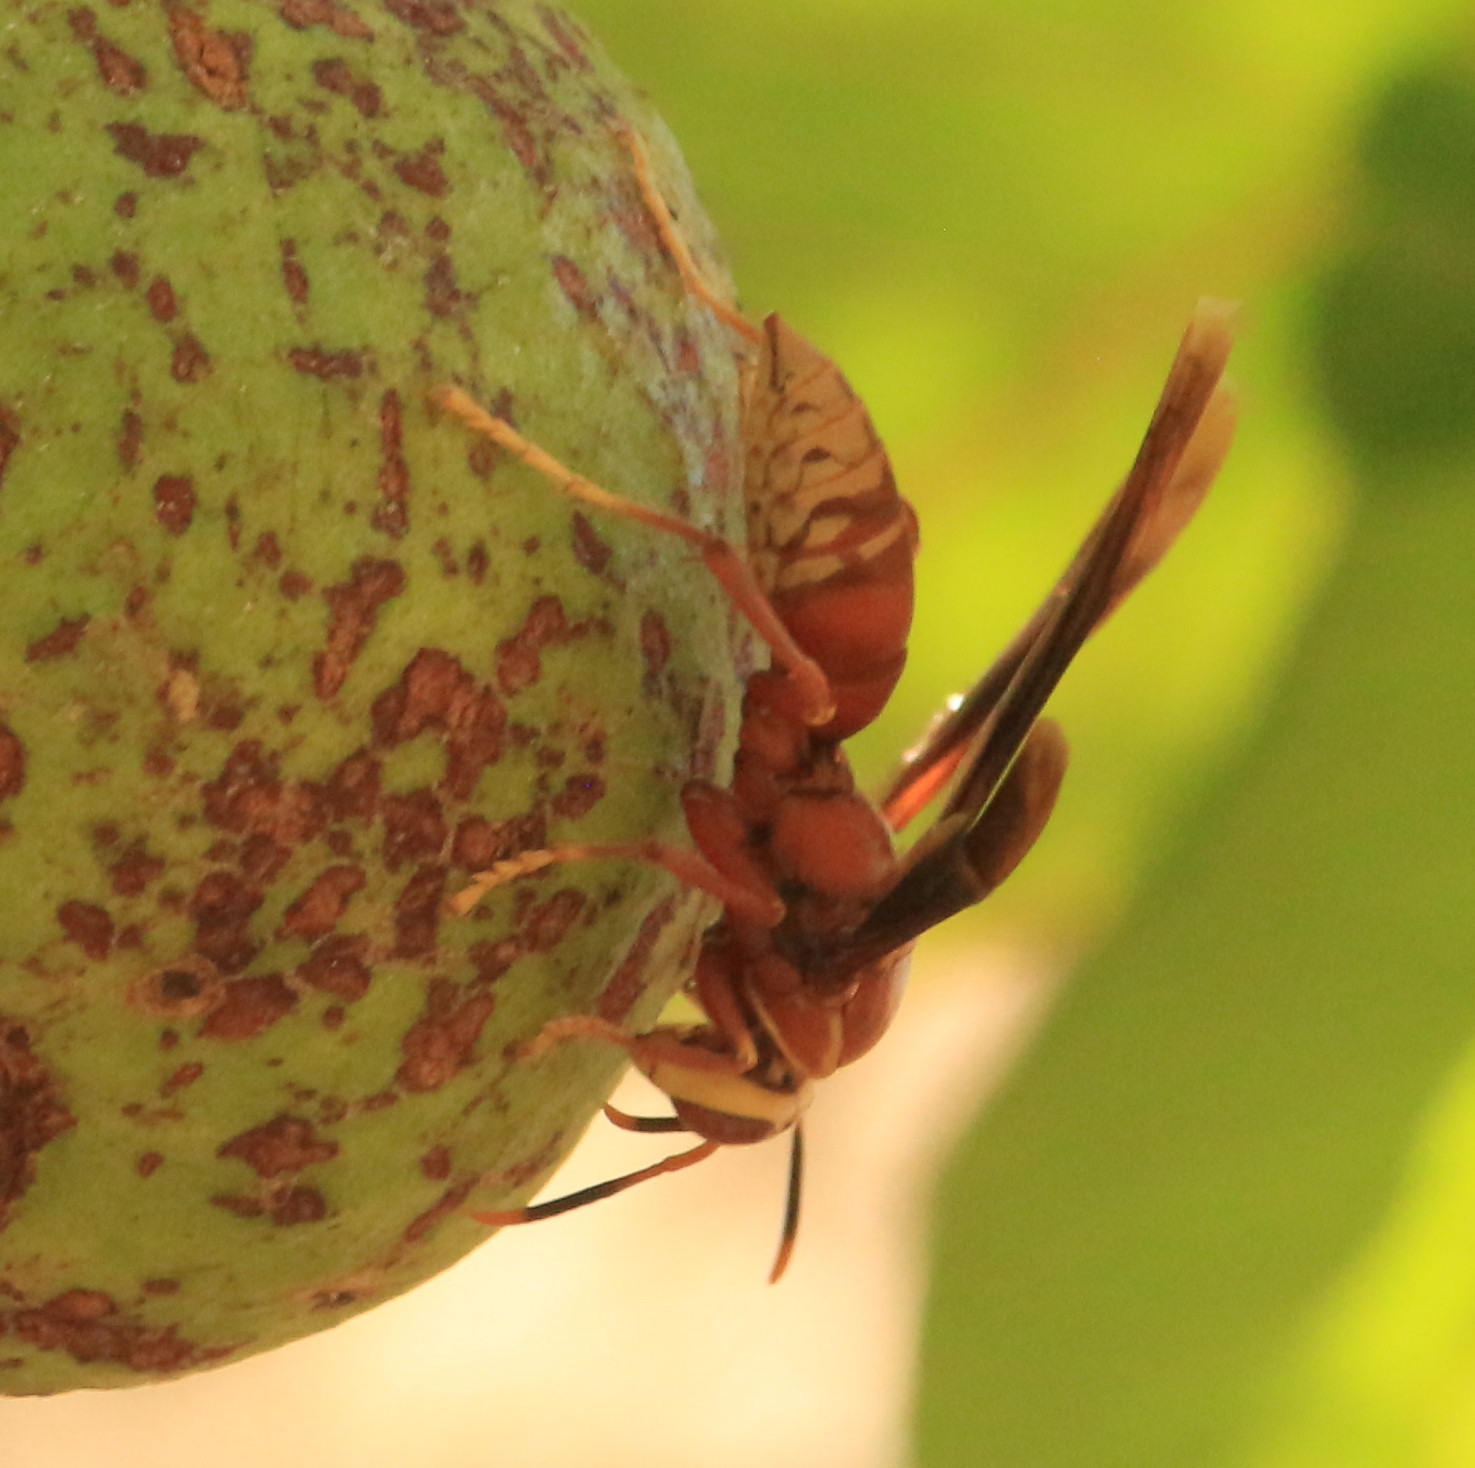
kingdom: Animalia
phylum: Arthropoda
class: Insecta
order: Hymenoptera
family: Eumenidae
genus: Polistes
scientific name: Polistes cavapyta
